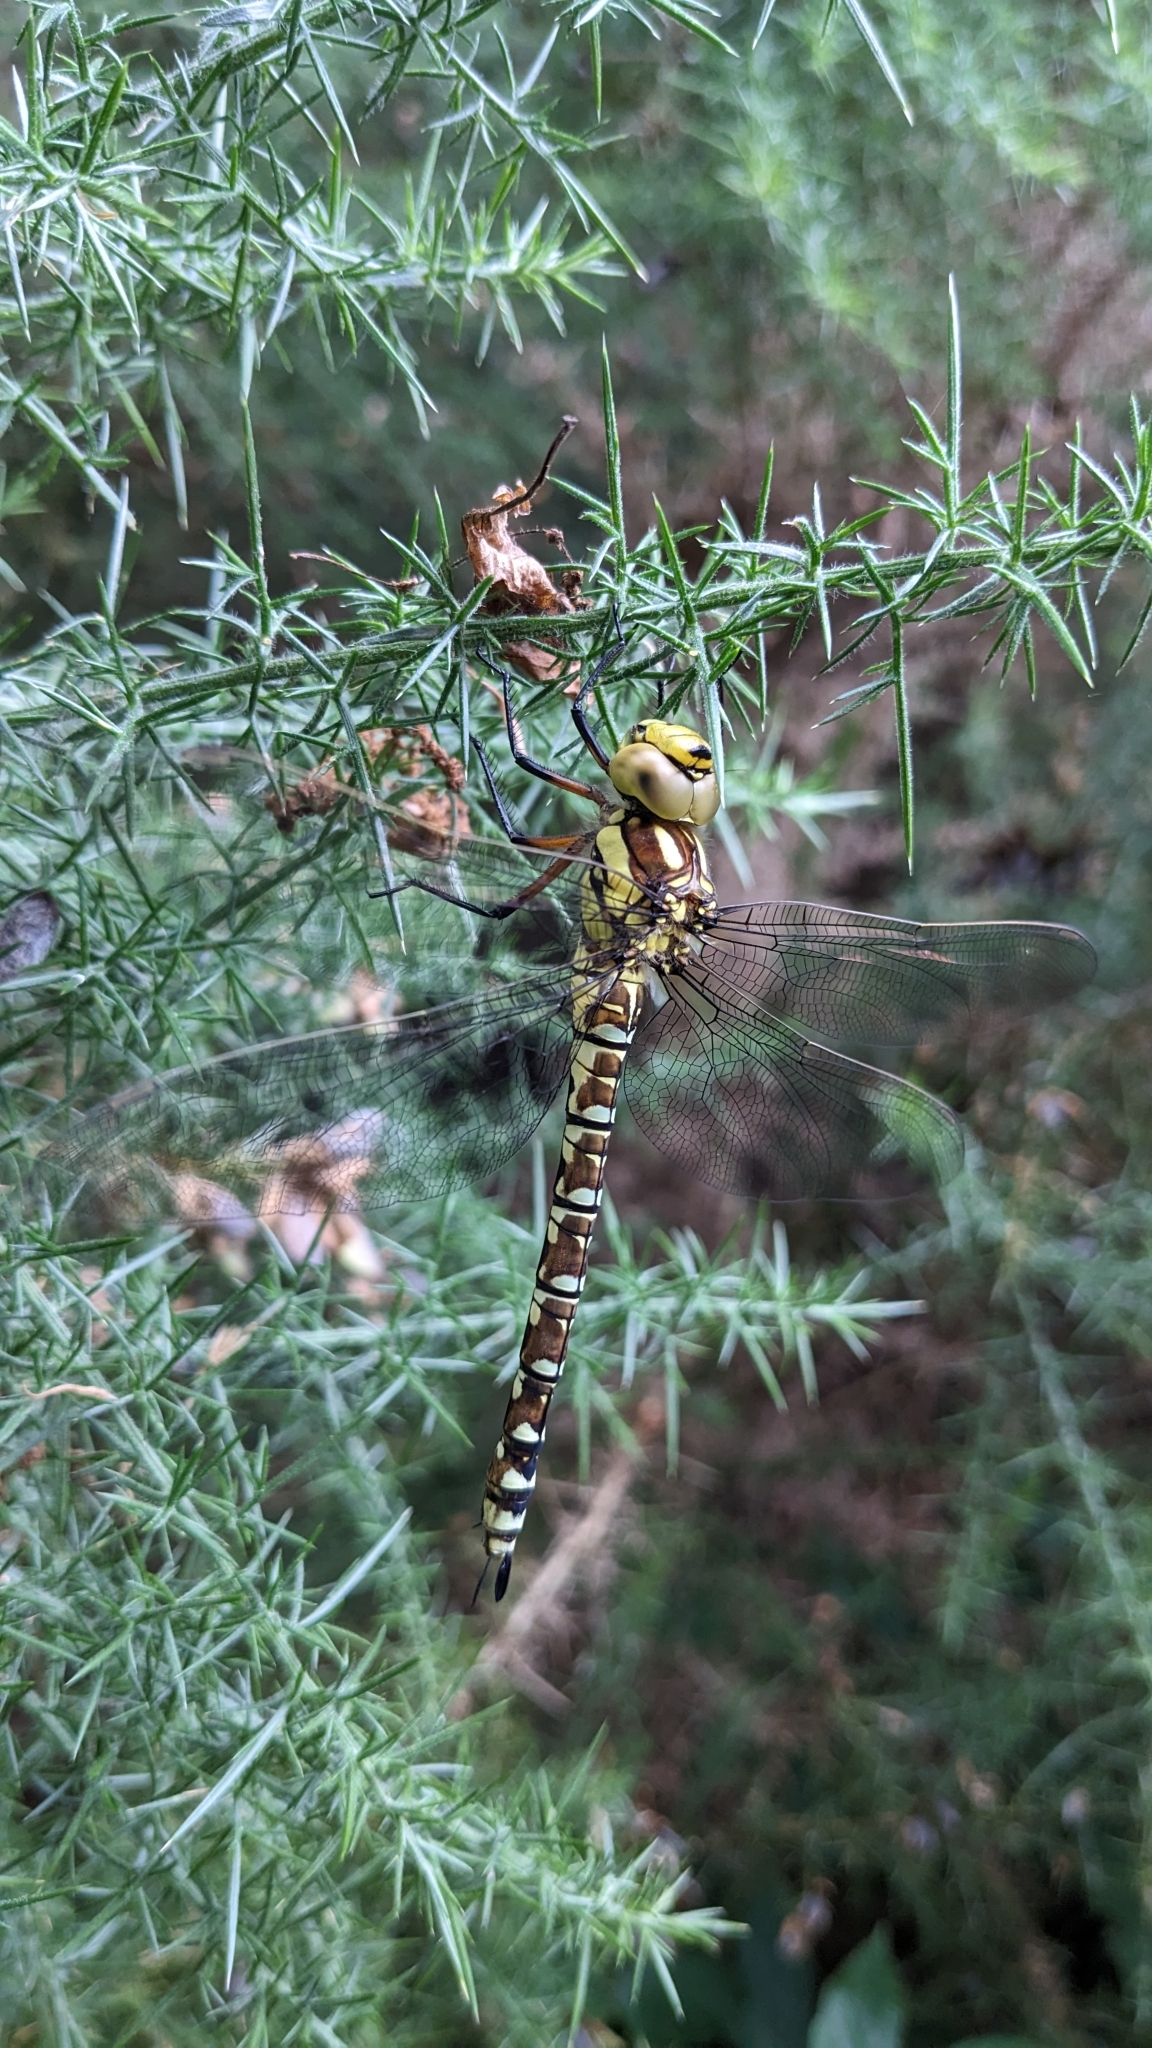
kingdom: Animalia
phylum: Arthropoda
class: Insecta
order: Odonata
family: Aeshnidae
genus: Aeshna
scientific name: Aeshna cyanea
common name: Southern hawker
